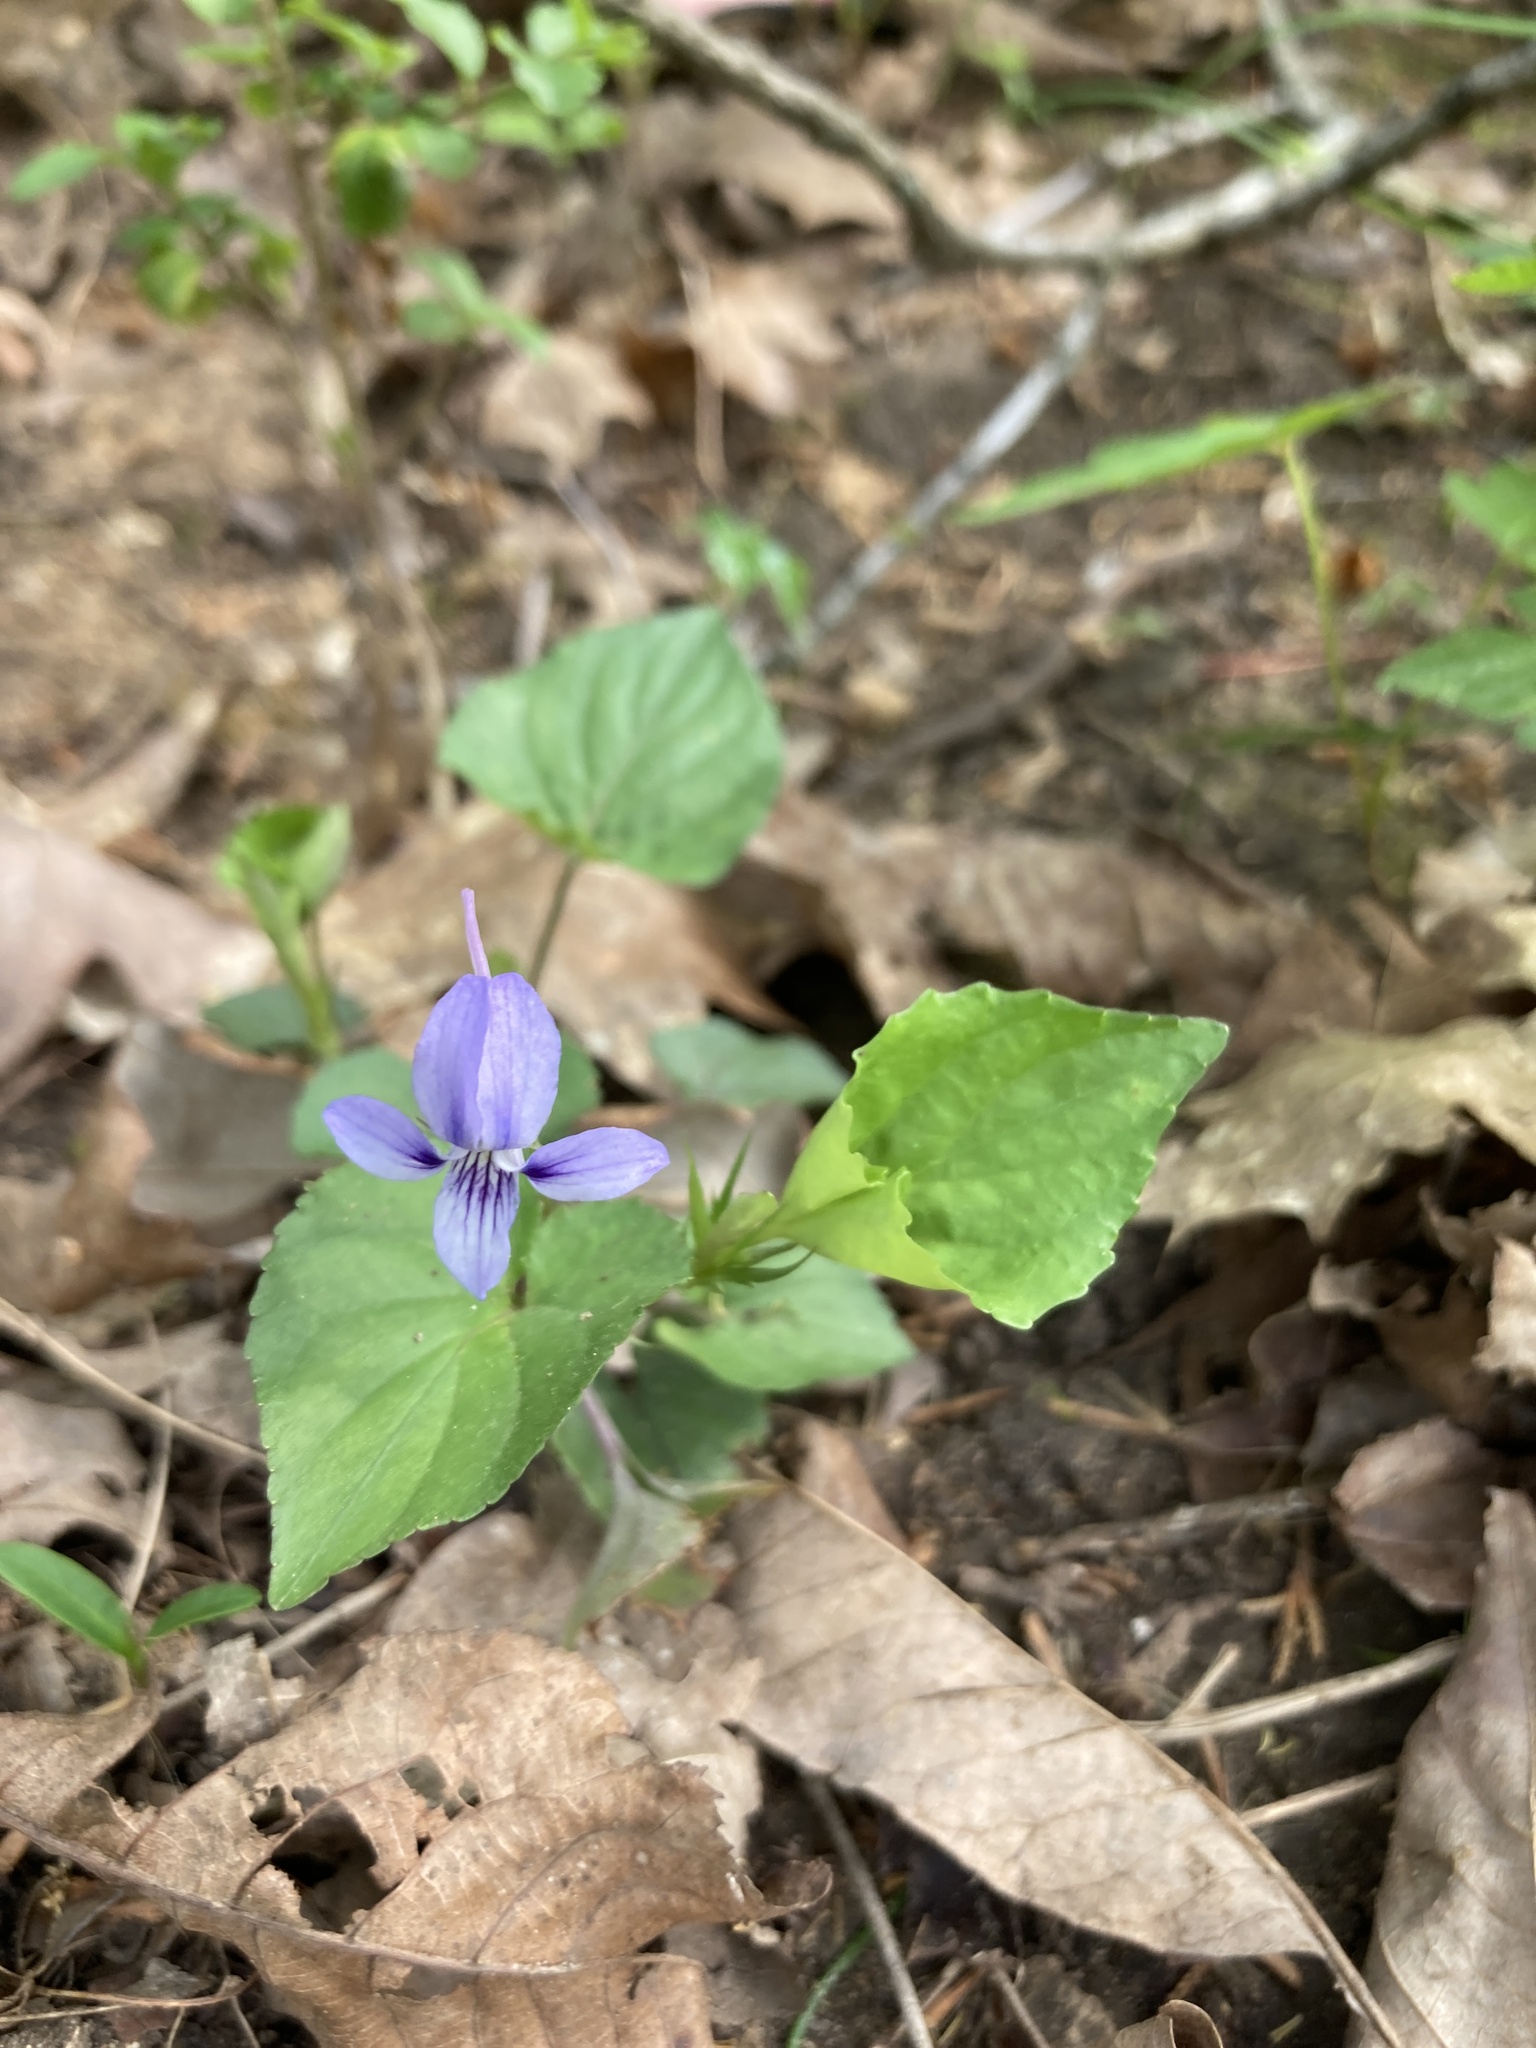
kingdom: Plantae
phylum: Tracheophyta
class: Magnoliopsida
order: Malpighiales
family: Violaceae
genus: Viola
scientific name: Viola rostrata
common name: Long-spur violet
